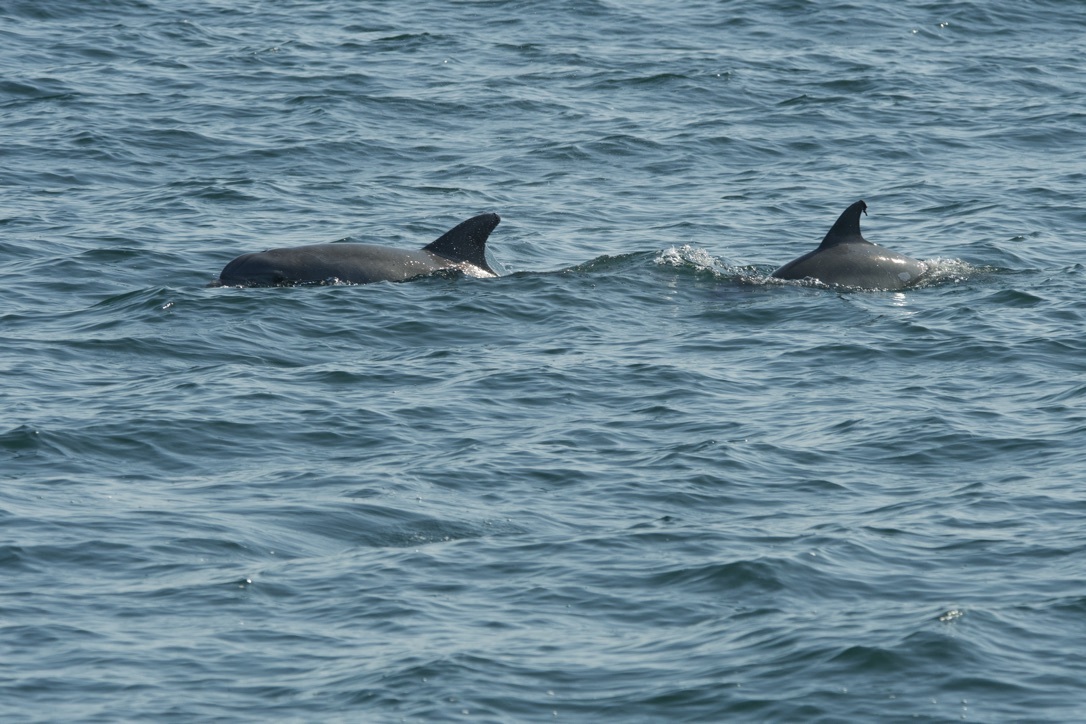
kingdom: Animalia
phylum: Chordata
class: Mammalia
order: Cetacea
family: Delphinidae
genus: Tursiops
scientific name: Tursiops truncatus
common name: Bottlenose dolphin
